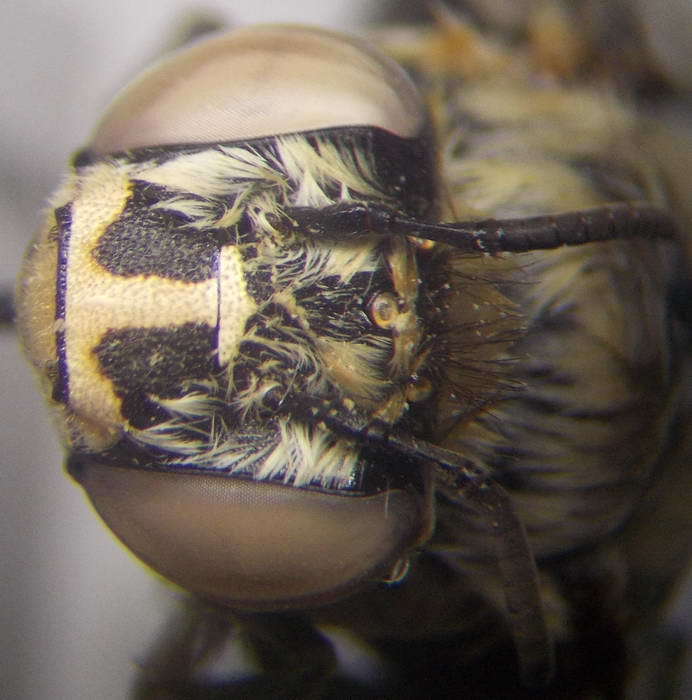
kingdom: Animalia
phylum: Arthropoda
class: Insecta
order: Hymenoptera
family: Apidae
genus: Amegilla
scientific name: Amegilla quadrifasciata
